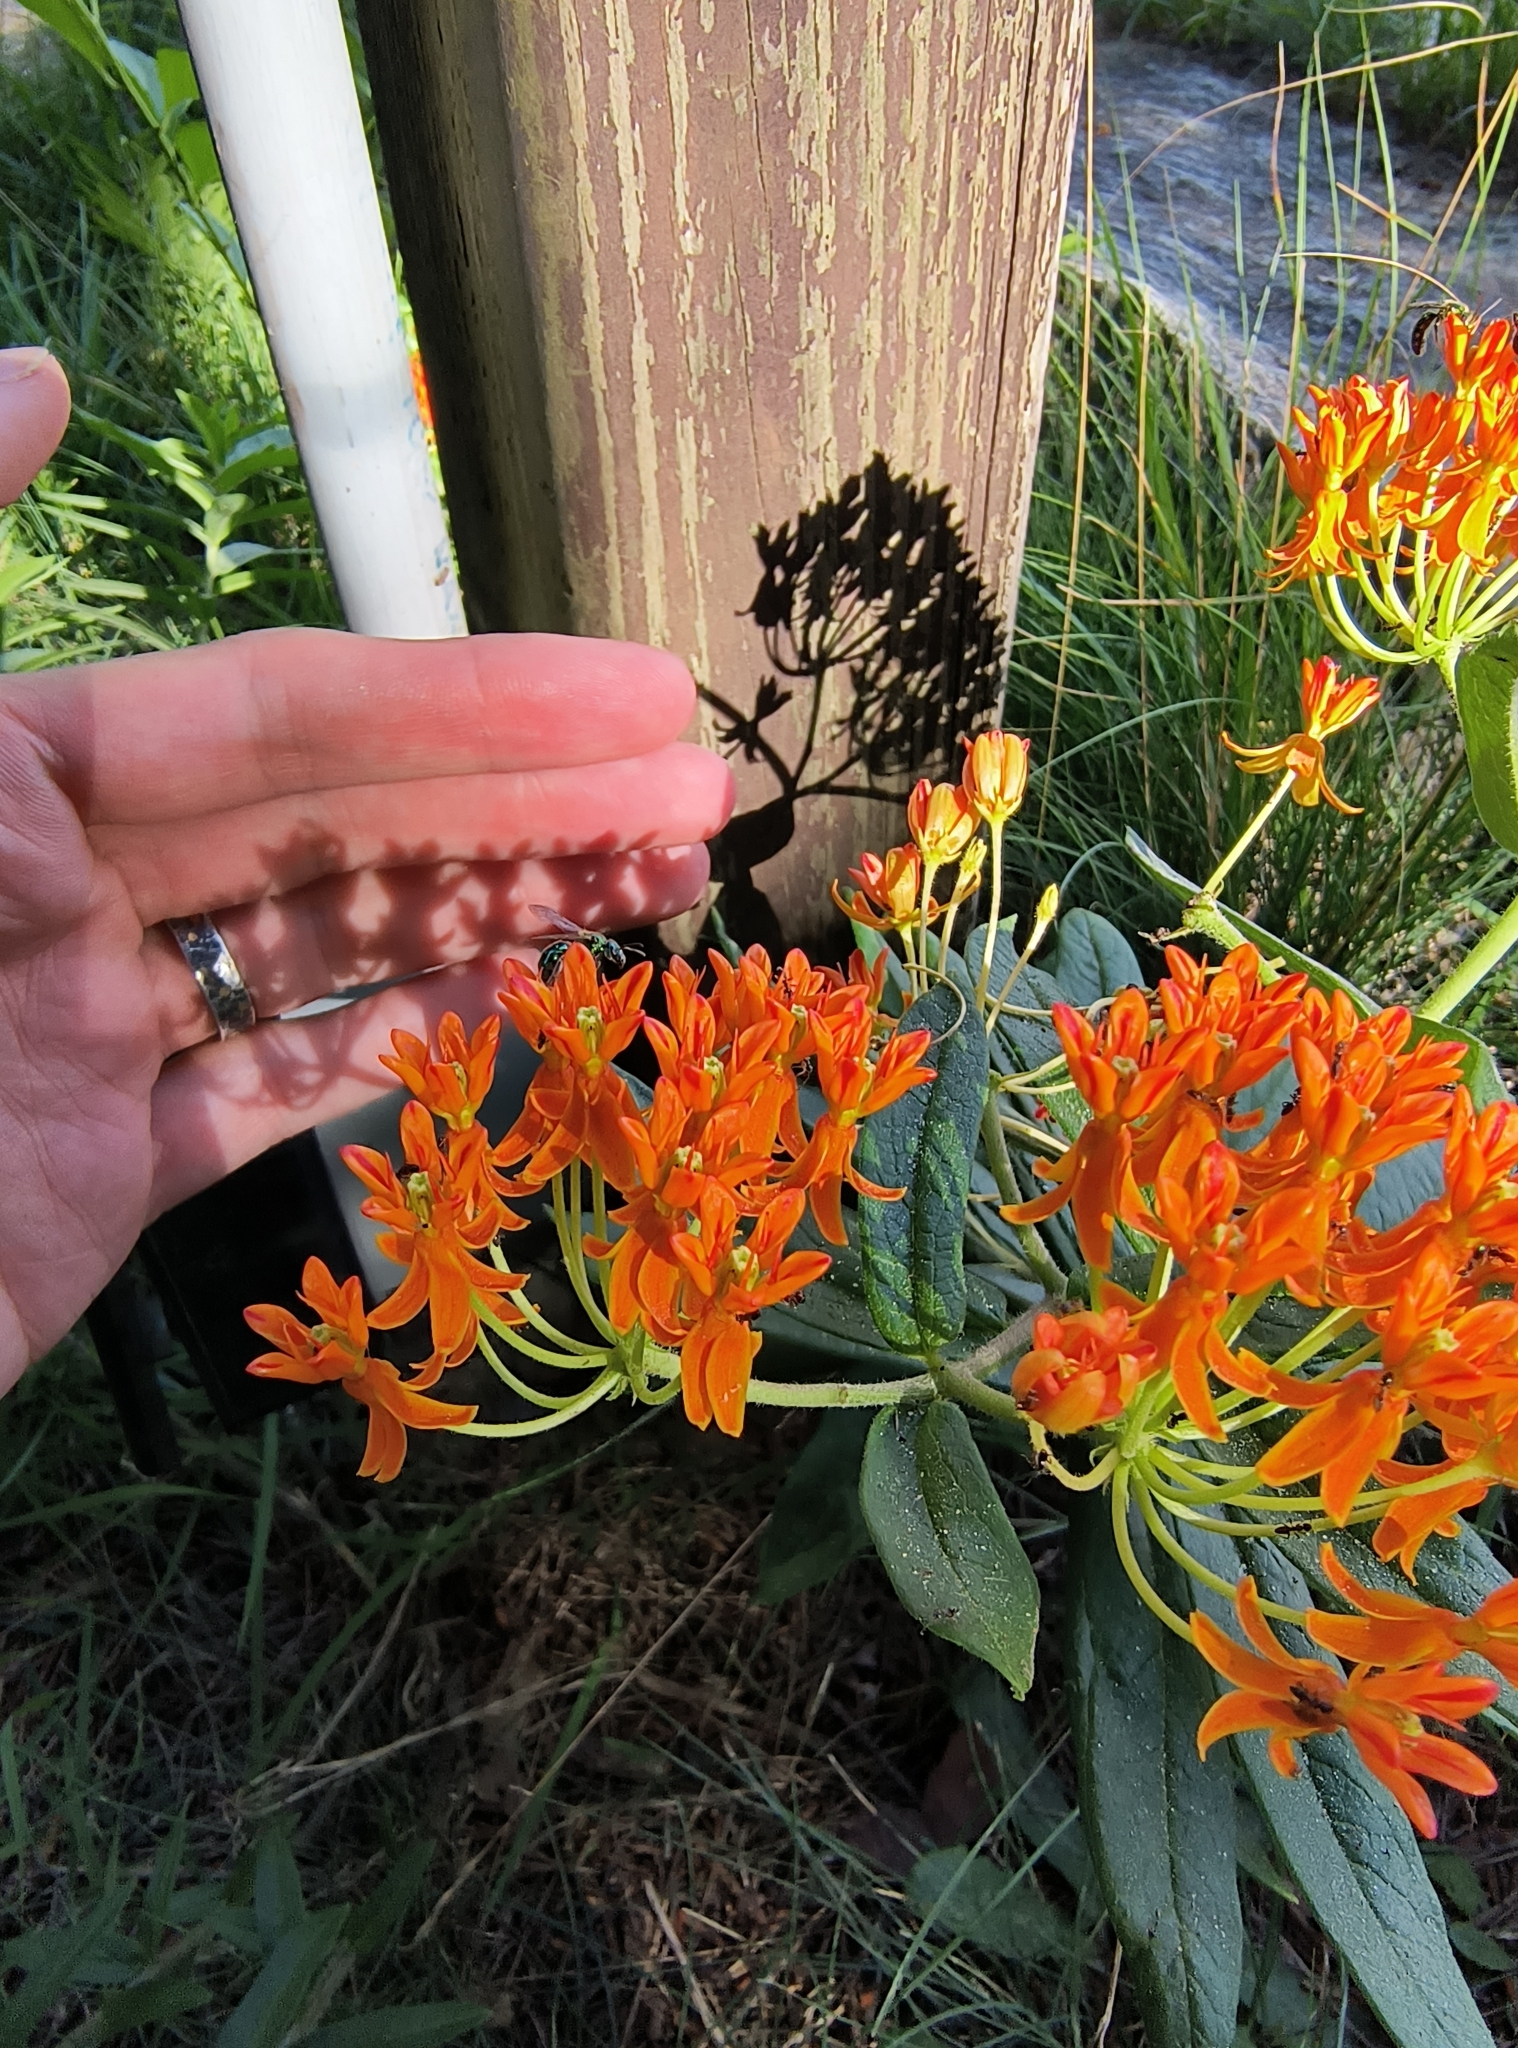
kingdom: Plantae
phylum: Tracheophyta
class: Magnoliopsida
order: Gentianales
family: Apocynaceae
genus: Asclepias
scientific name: Asclepias tuberosa
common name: Butterfly milkweed
